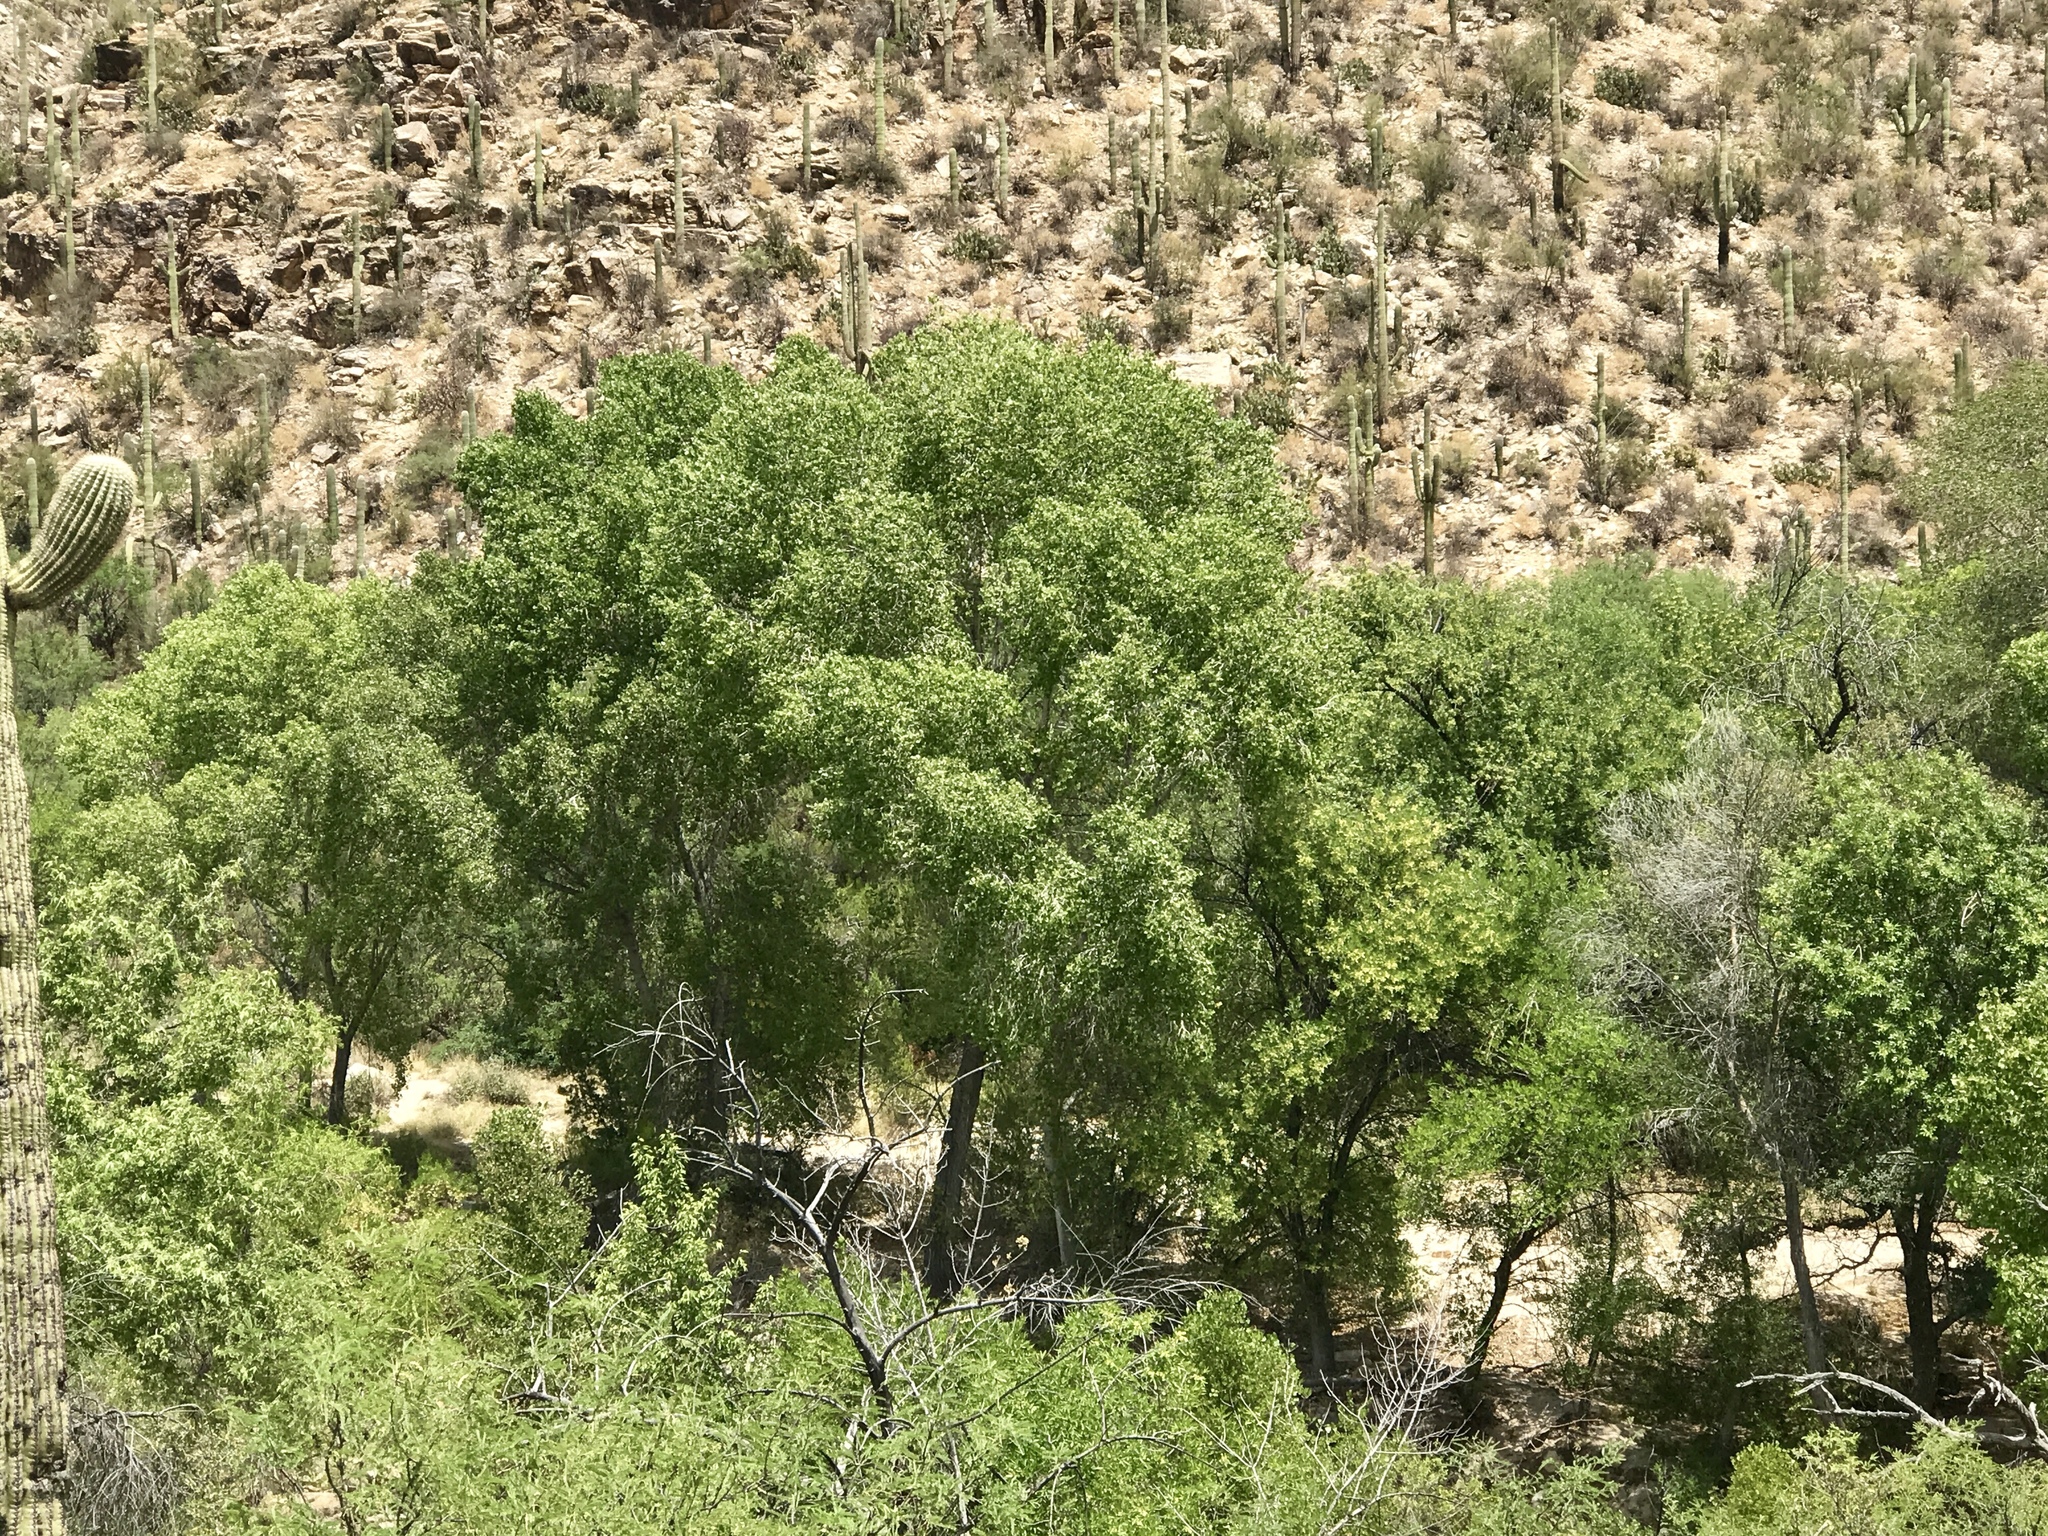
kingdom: Plantae
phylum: Tracheophyta
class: Magnoliopsida
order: Malpighiales
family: Salicaceae
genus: Populus
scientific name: Populus fremontii
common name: Fremont's cottonwood
